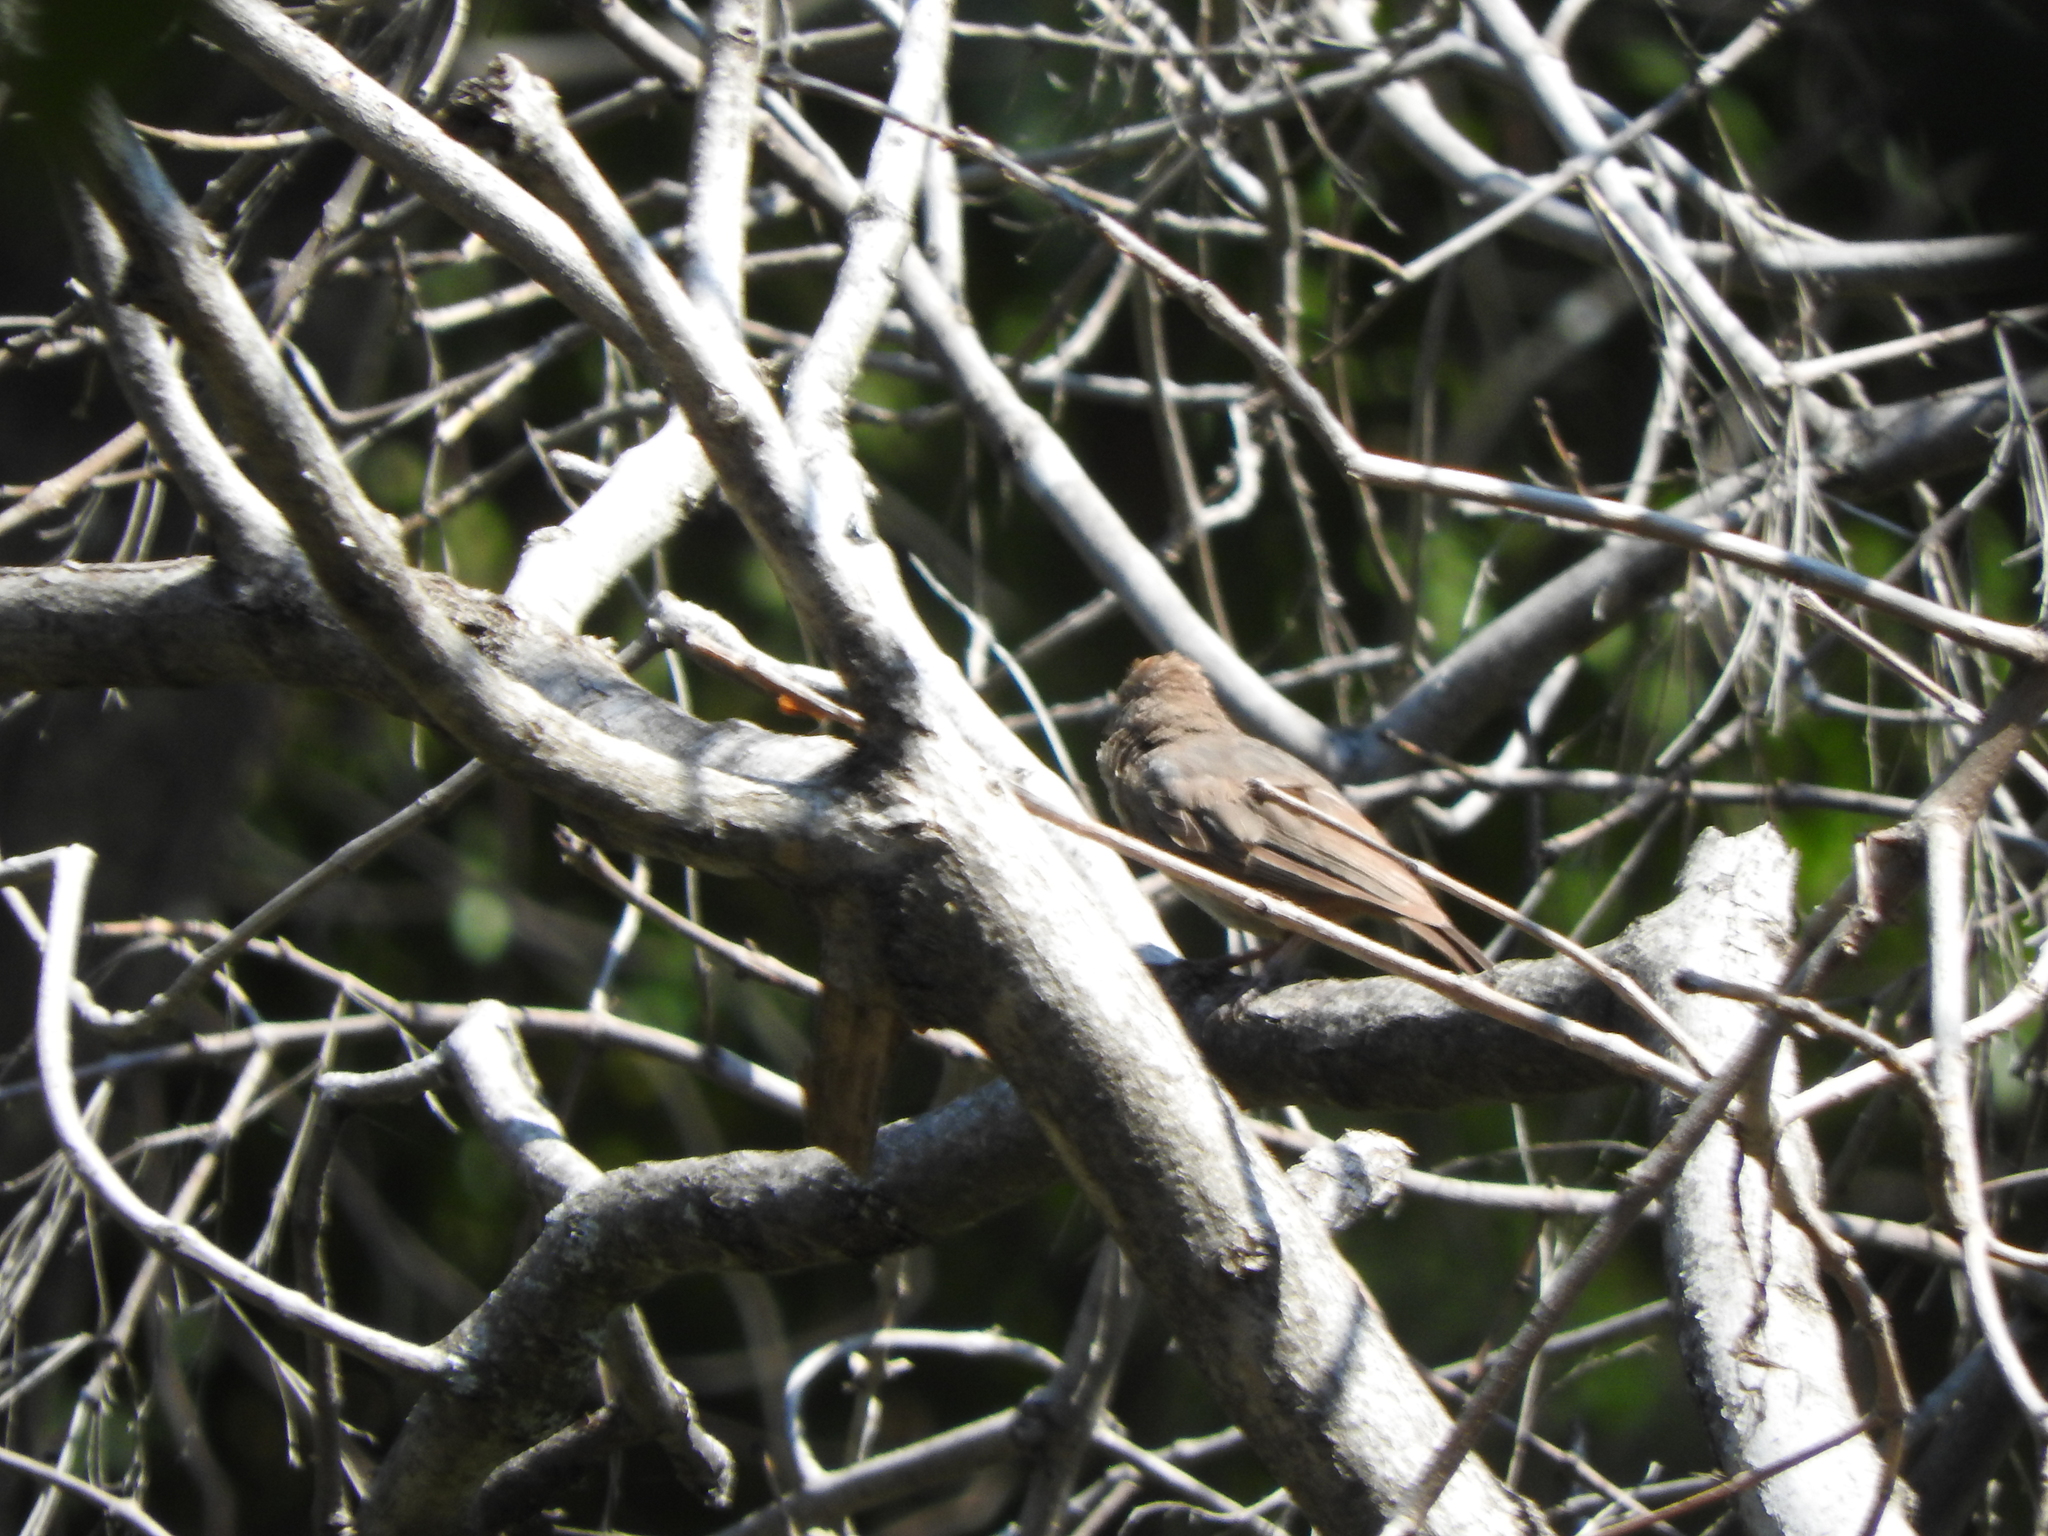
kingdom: Animalia
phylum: Chordata
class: Aves
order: Passeriformes
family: Passerellidae
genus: Melozone
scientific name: Melozone fusca
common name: Canyon towhee
